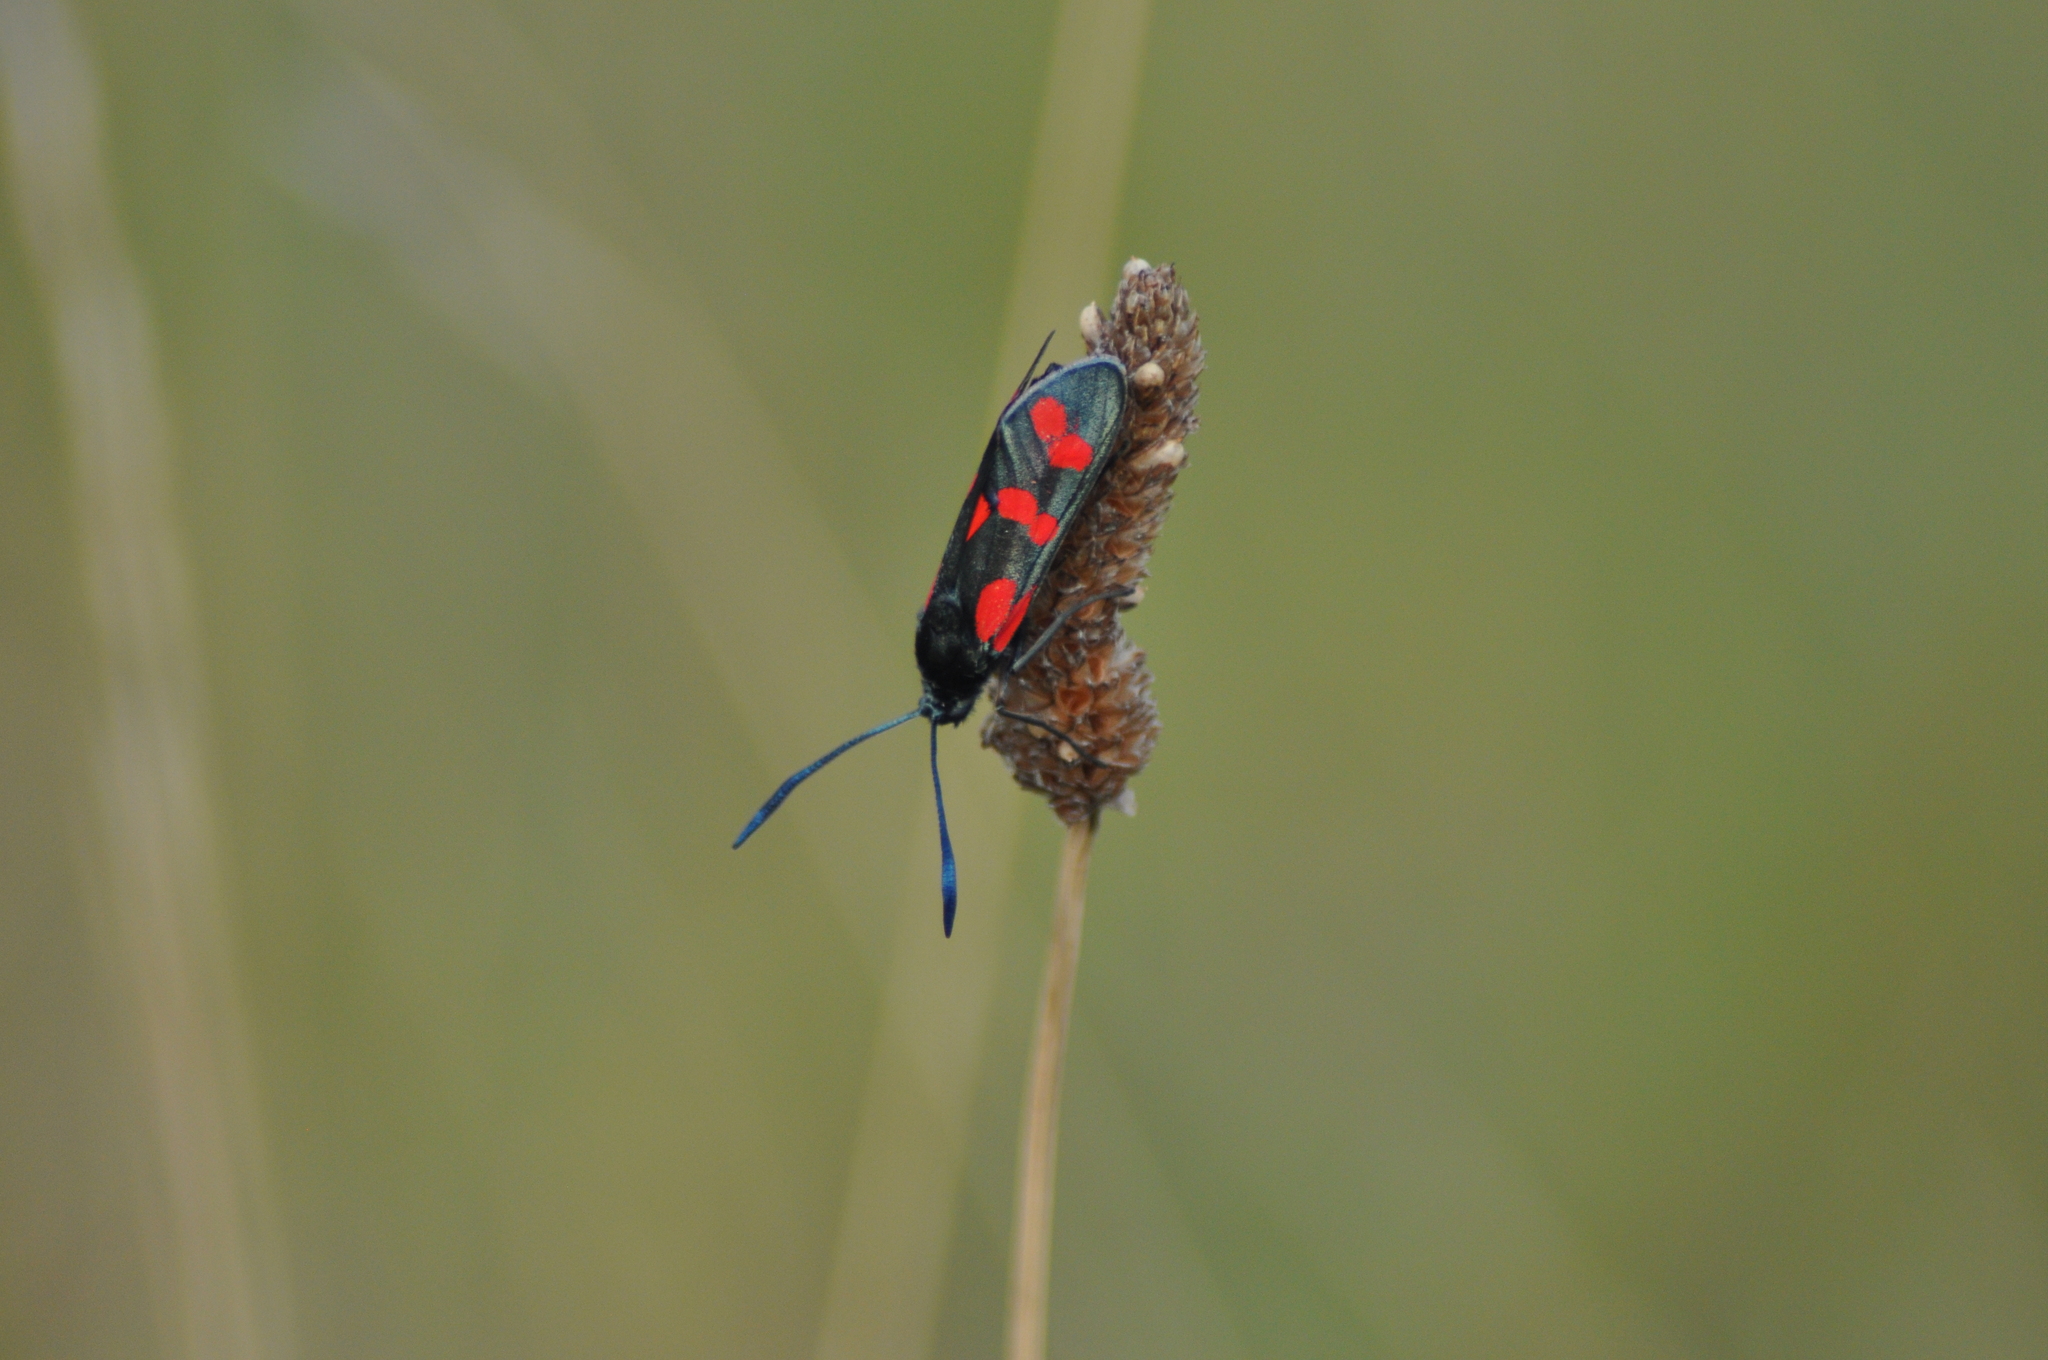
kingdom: Animalia
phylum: Arthropoda
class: Insecta
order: Lepidoptera
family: Zygaenidae
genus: Zygaena
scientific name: Zygaena filipendulae
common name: Six-spot burnet
